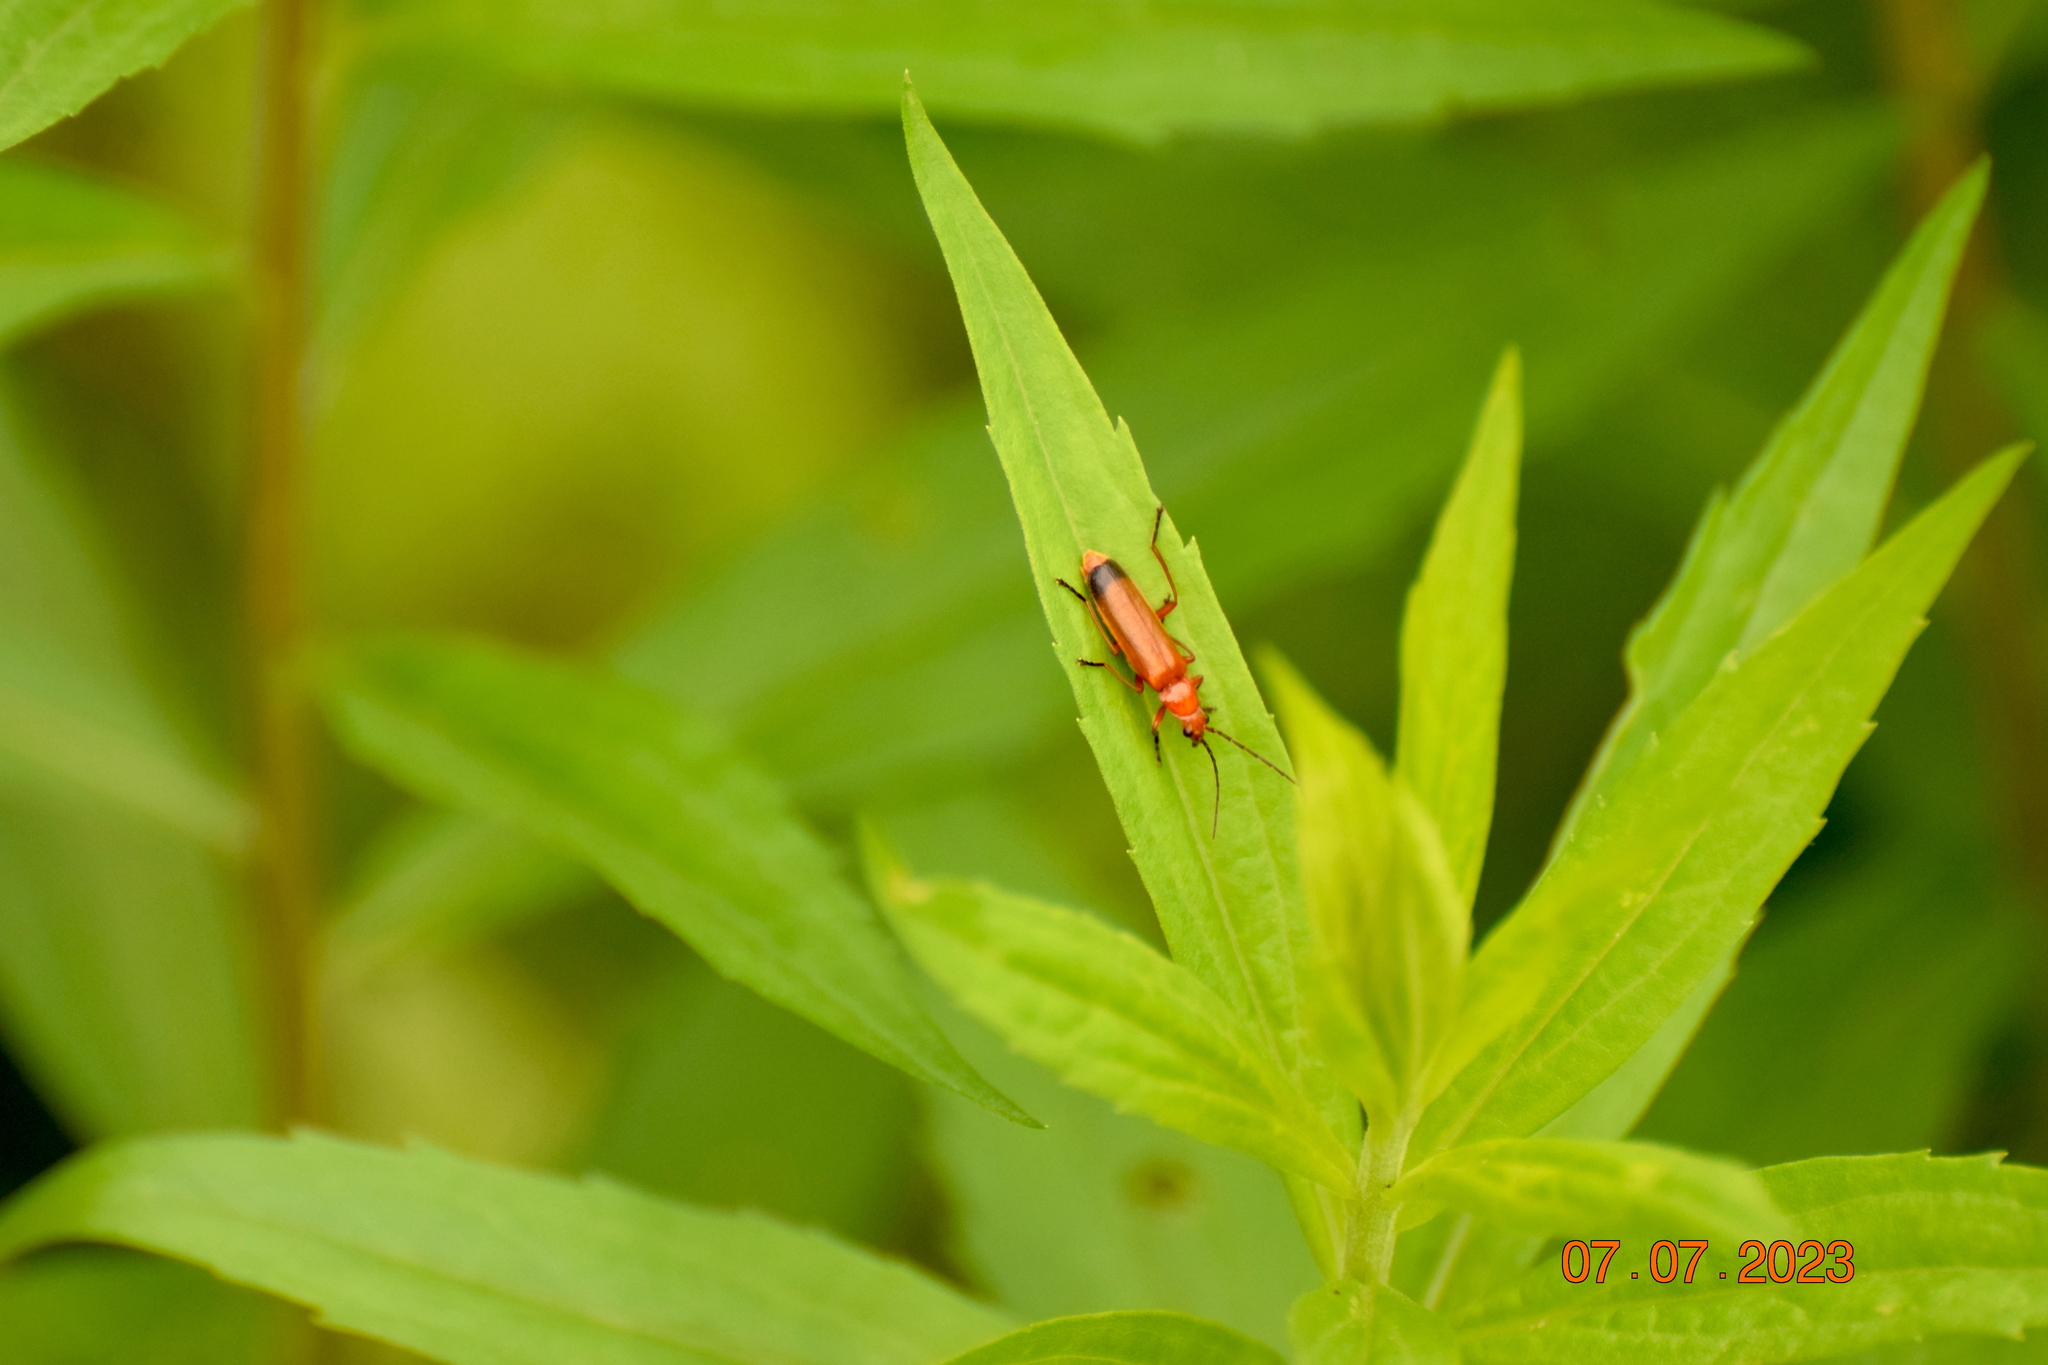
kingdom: Animalia
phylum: Arthropoda
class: Insecta
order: Coleoptera
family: Cantharidae
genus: Rhagonycha
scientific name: Rhagonycha fulva
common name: Common red soldier beetle
